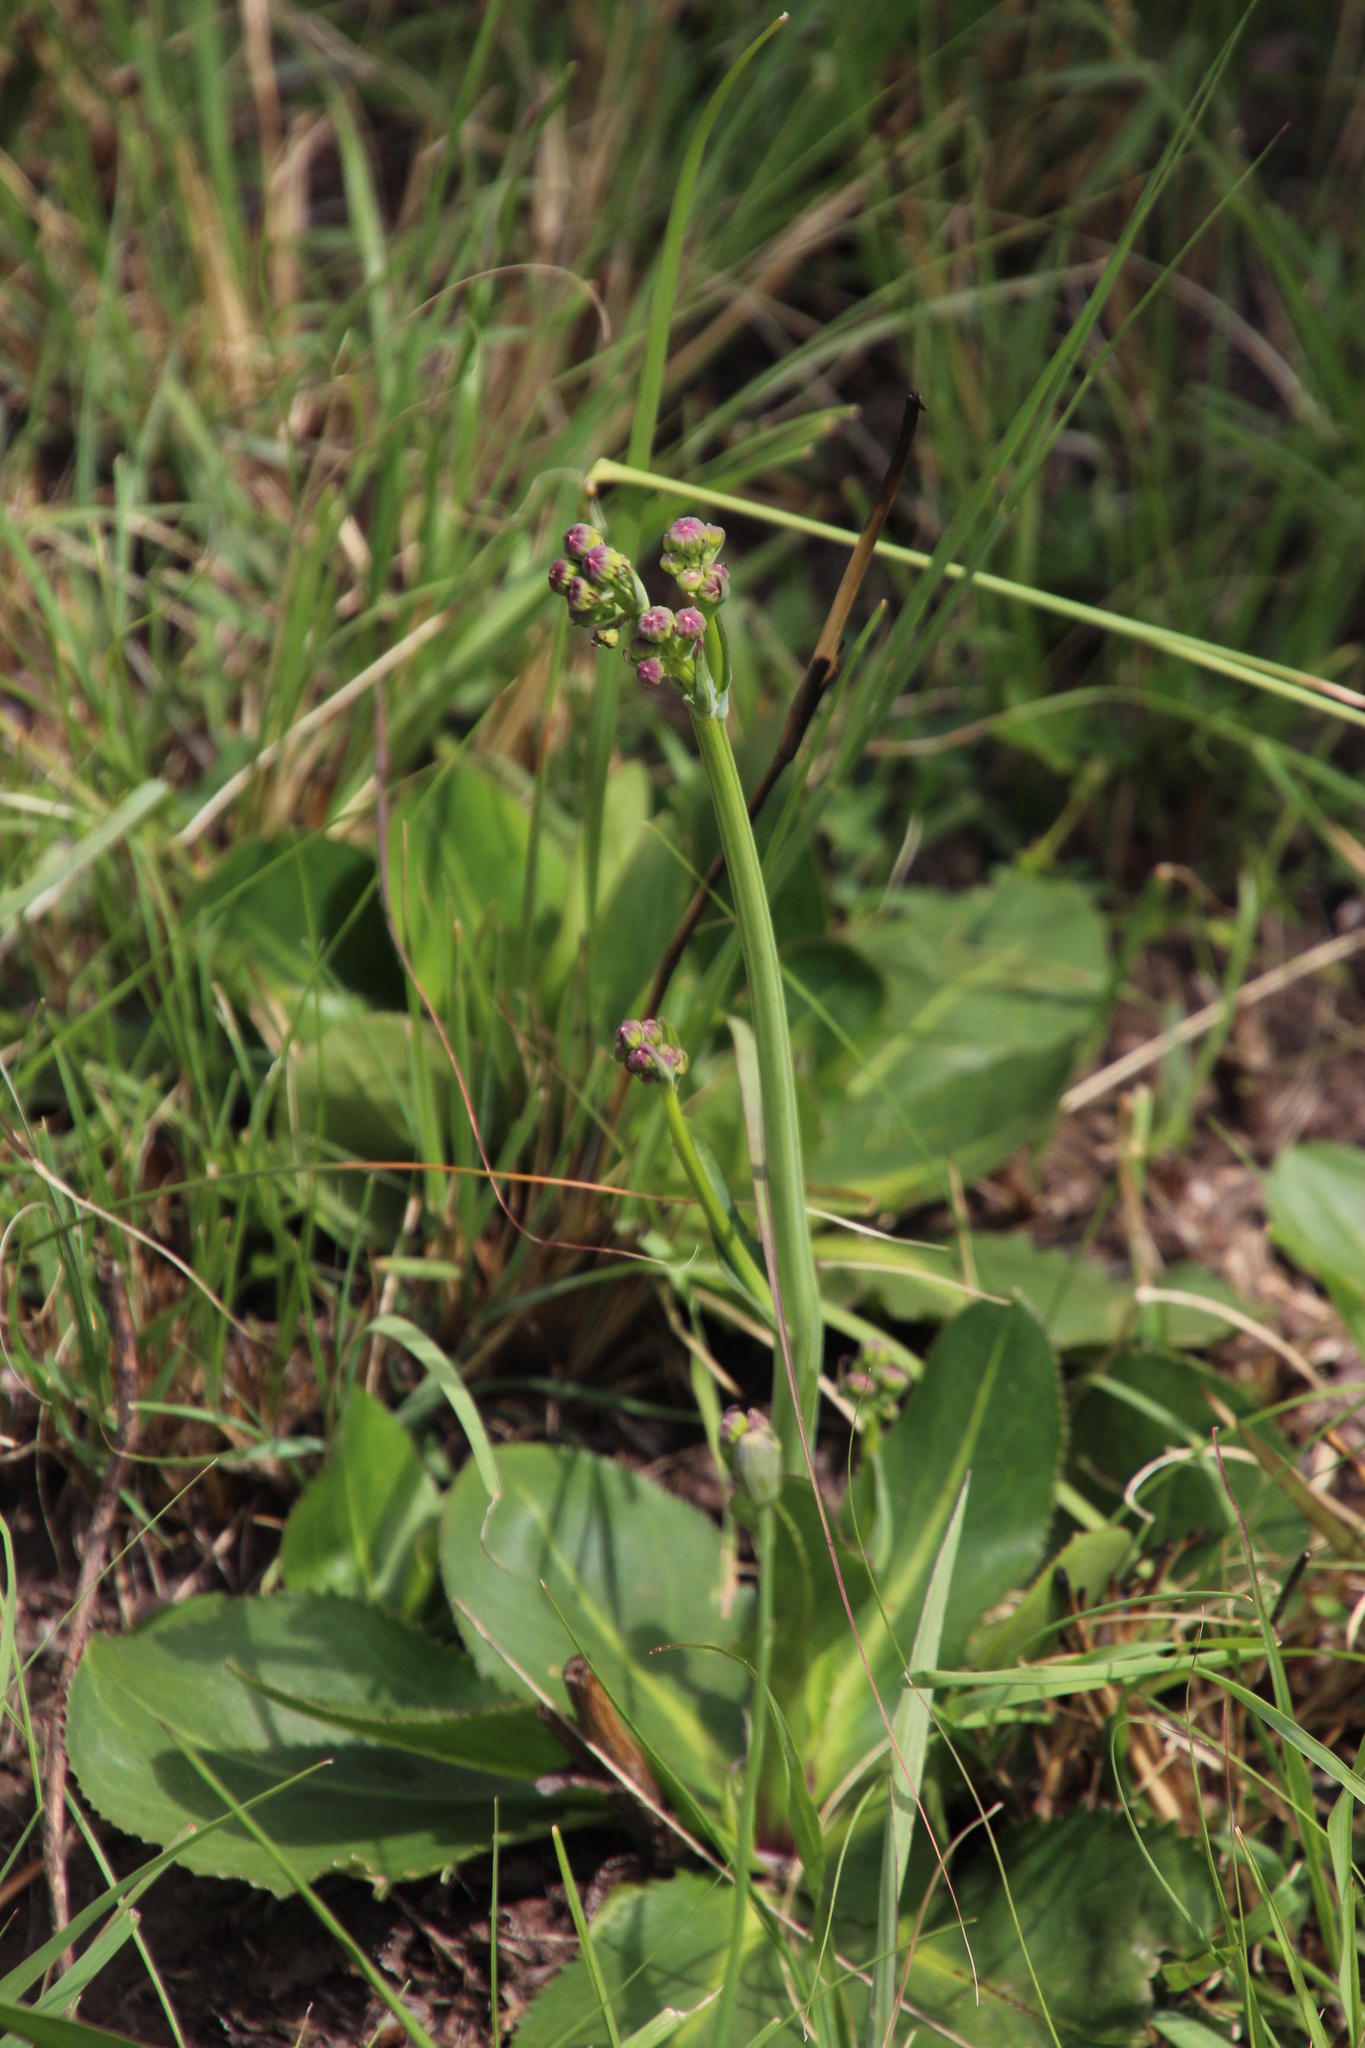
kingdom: Plantae
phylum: Tracheophyta
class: Magnoliopsida
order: Asterales
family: Asteraceae
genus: Senecio
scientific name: Senecio coronatus
